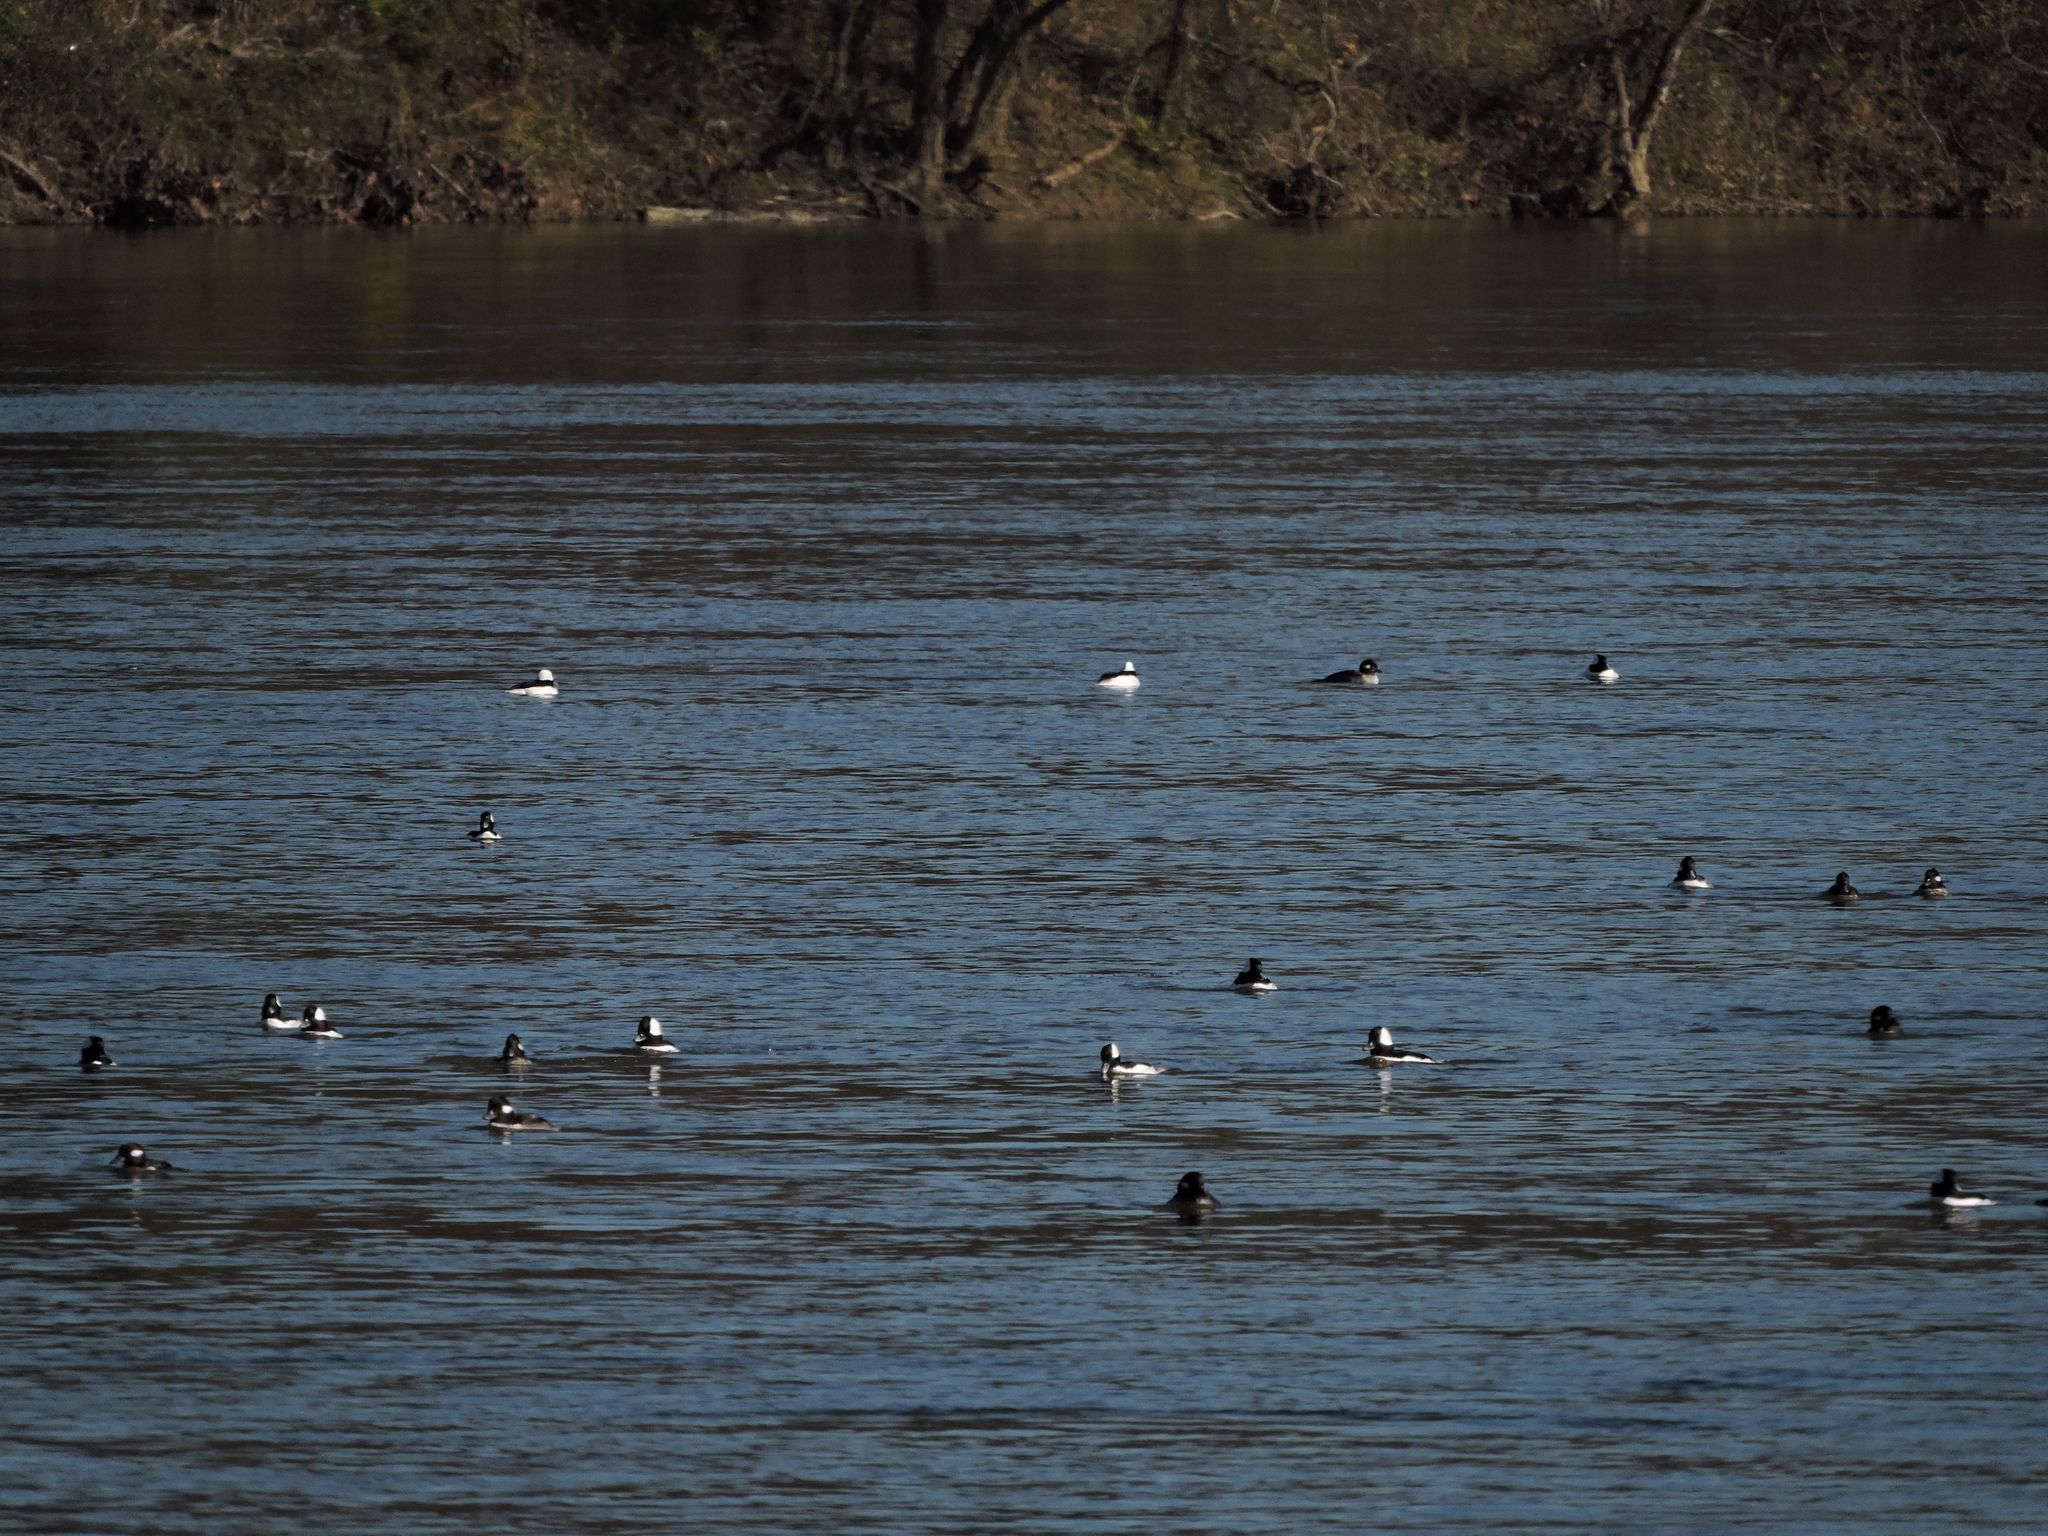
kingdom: Animalia
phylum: Chordata
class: Aves
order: Anseriformes
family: Anatidae
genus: Bucephala
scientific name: Bucephala albeola
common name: Bufflehead
